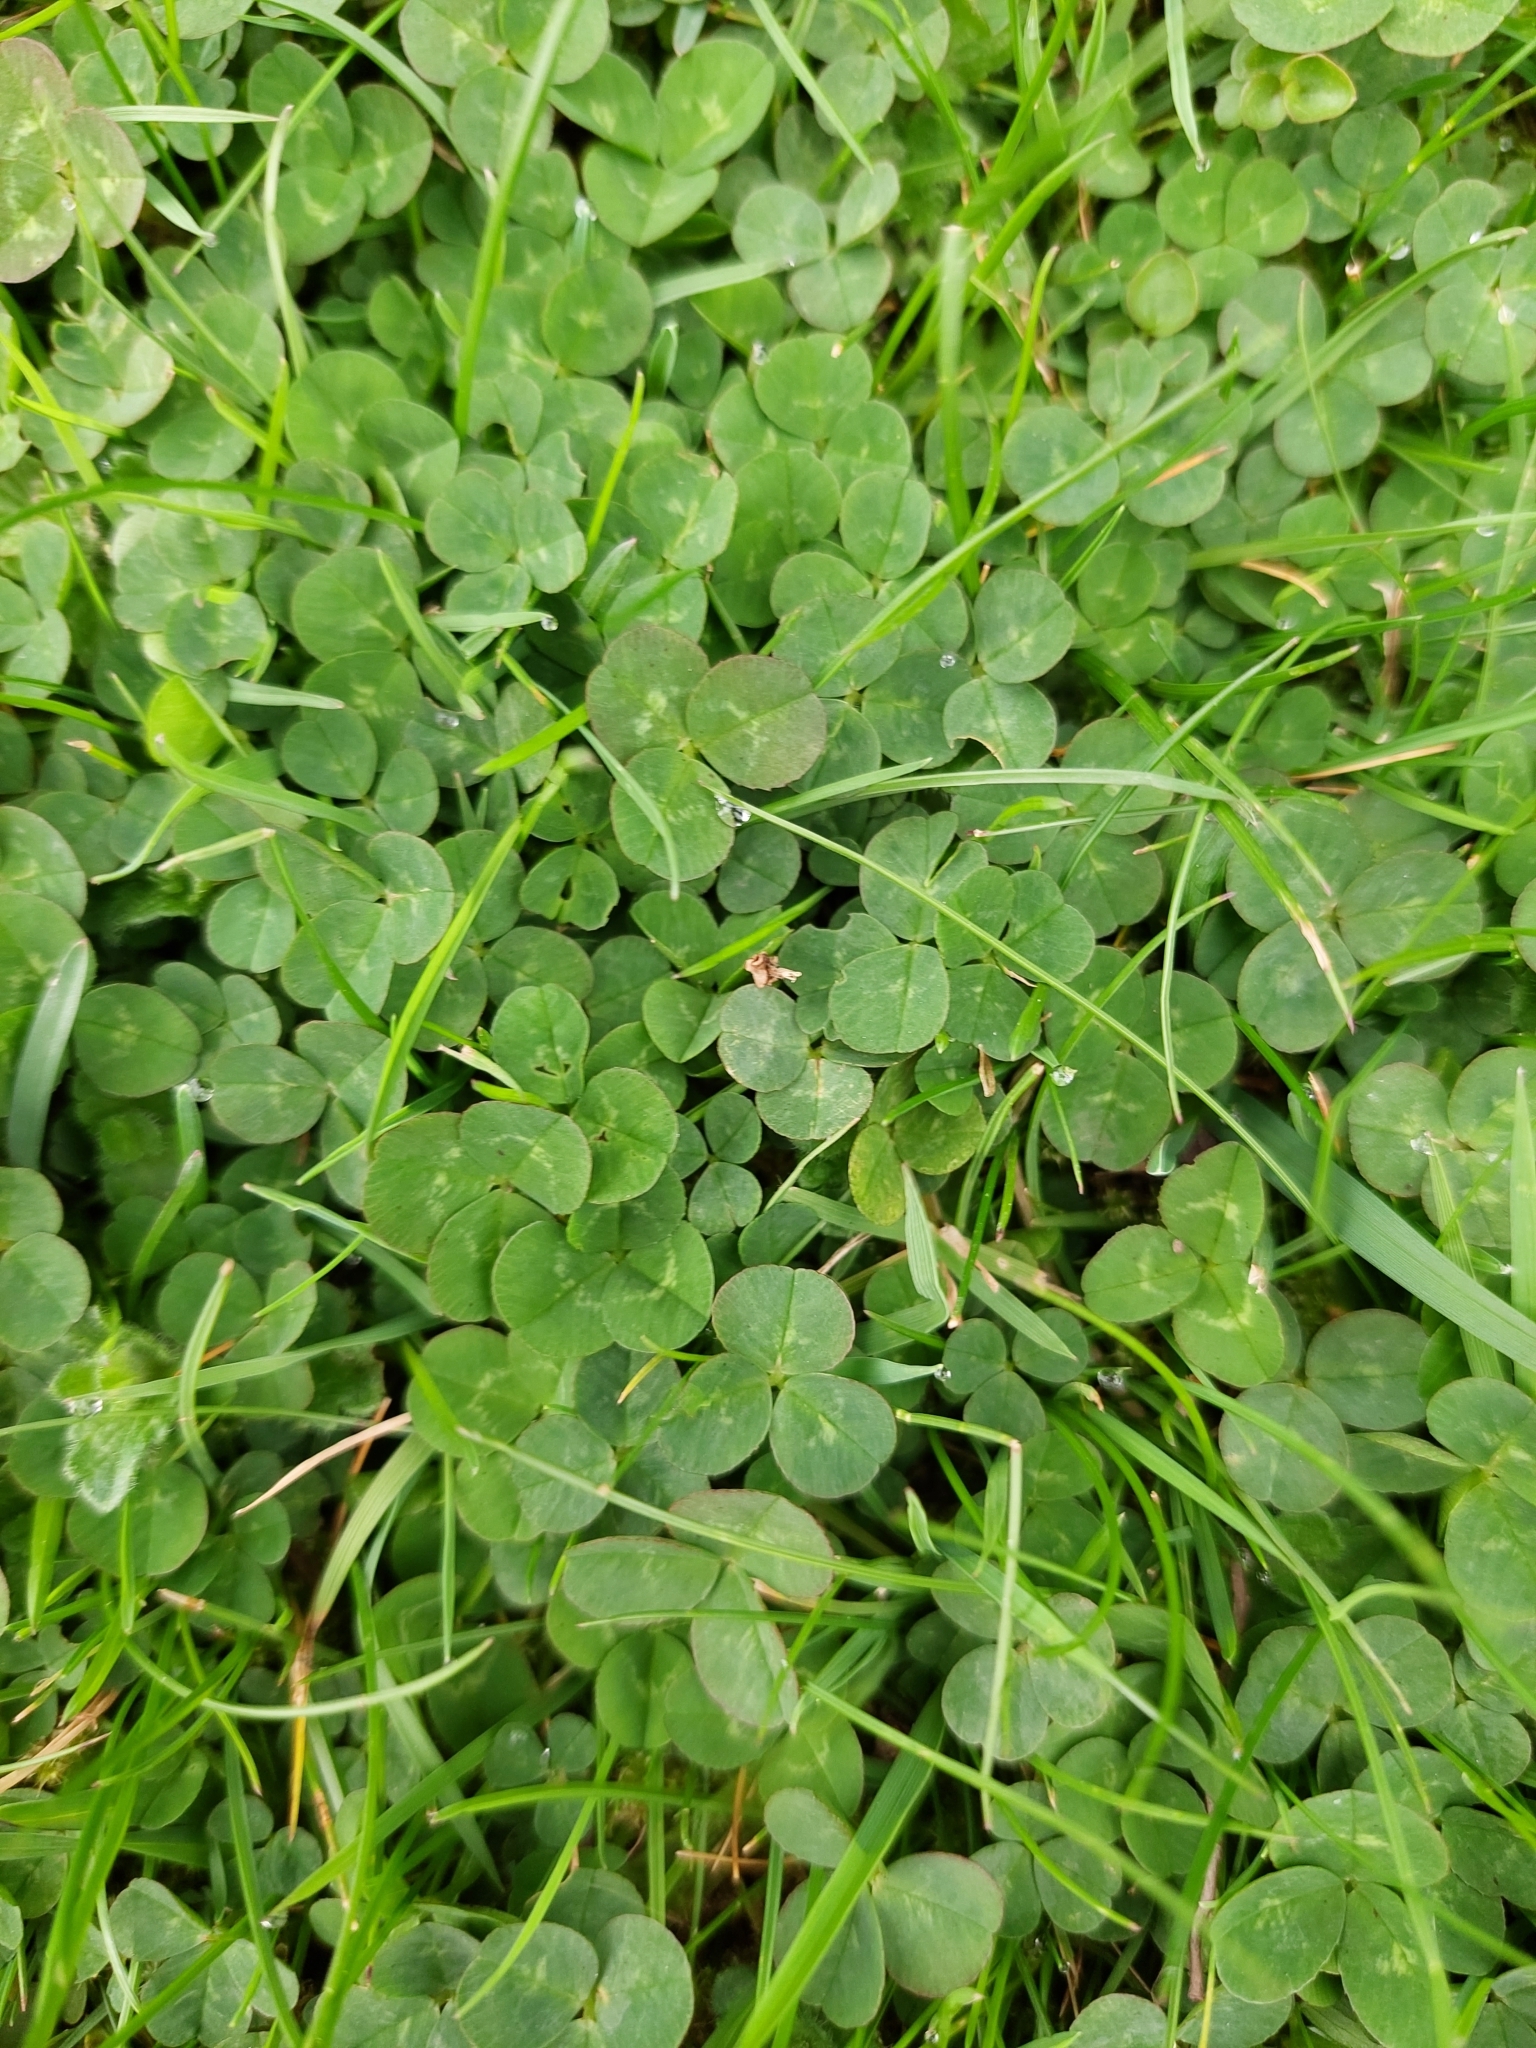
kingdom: Plantae
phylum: Tracheophyta
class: Magnoliopsida
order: Fabales
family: Fabaceae
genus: Trifolium
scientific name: Trifolium repens
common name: White clover
